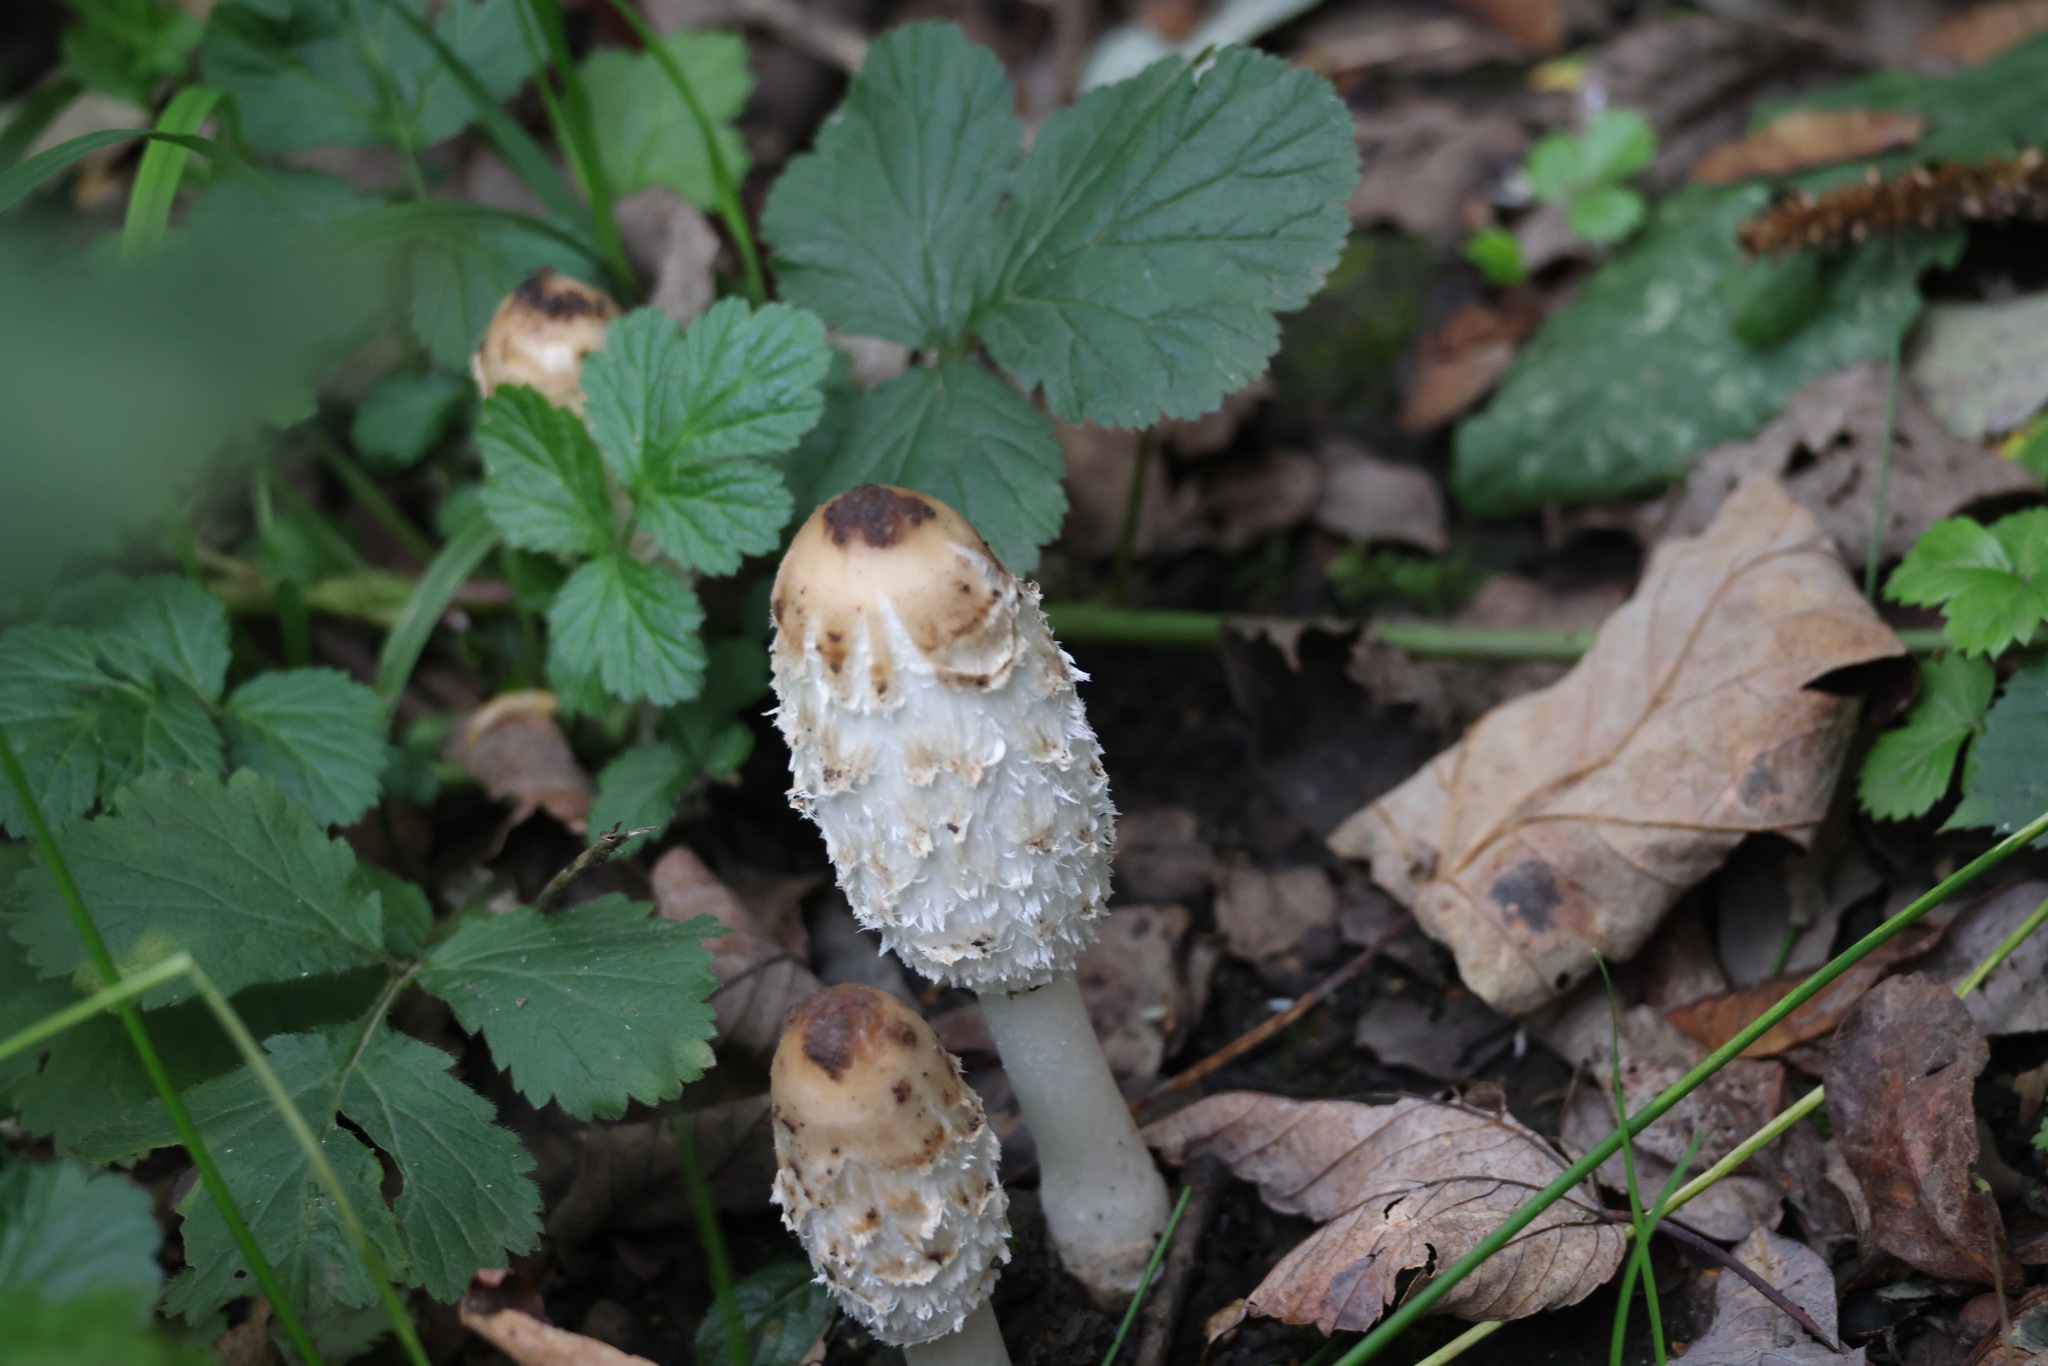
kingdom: Fungi
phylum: Basidiomycota
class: Agaricomycetes
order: Agaricales
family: Agaricaceae
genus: Coprinus
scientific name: Coprinus comatus
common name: Lawyer's wig
